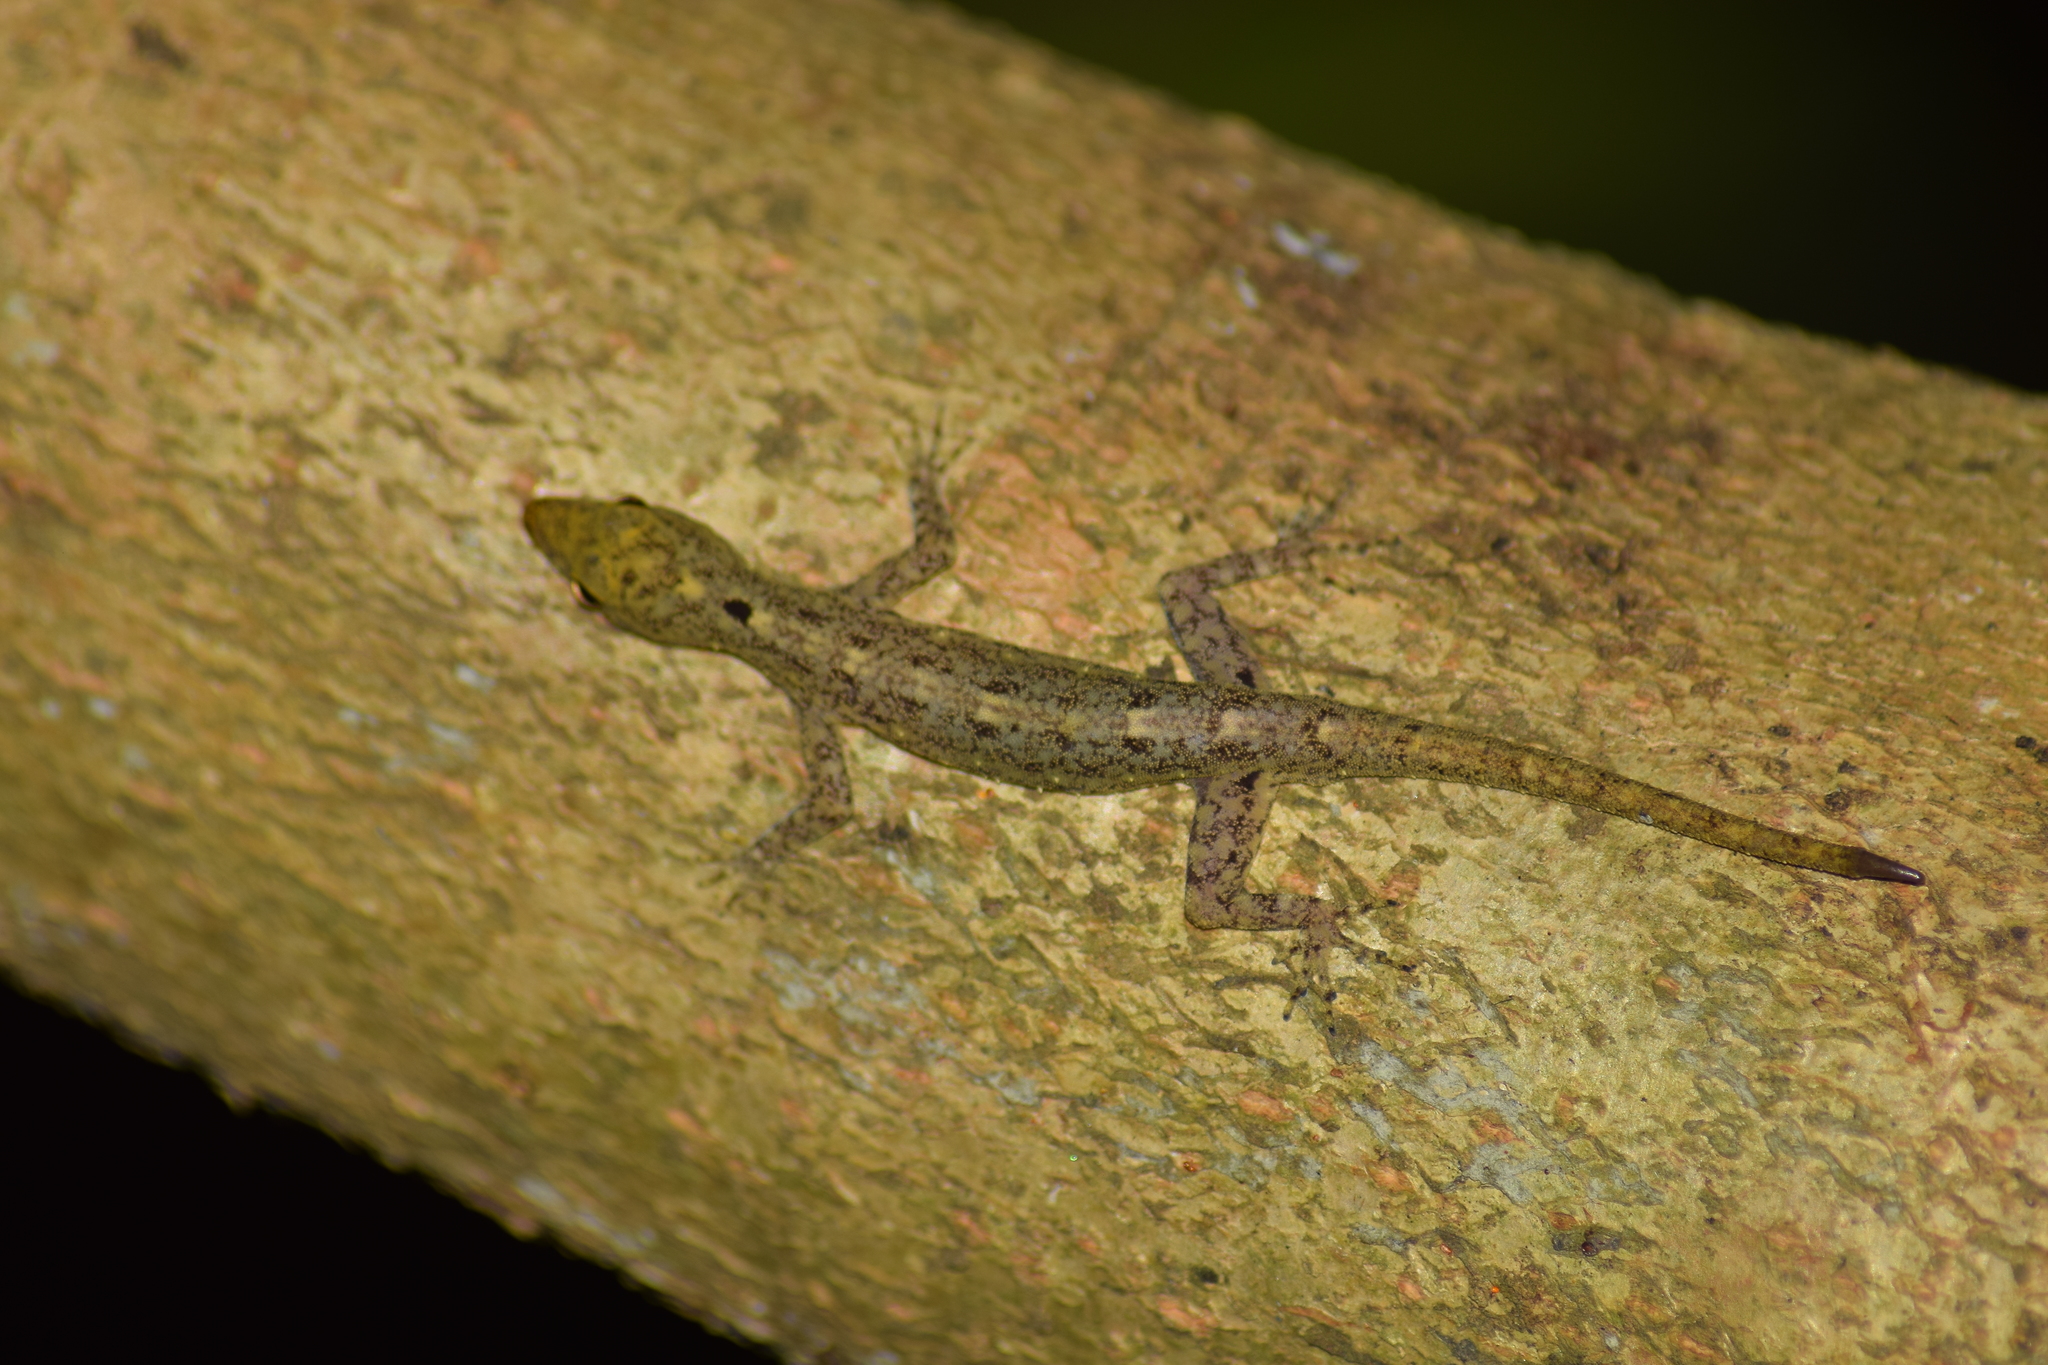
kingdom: Animalia
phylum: Chordata
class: Squamata
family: Gekkonidae
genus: Cnemaspis
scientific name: Cnemaspis littoralis
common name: Coastal day gecko
